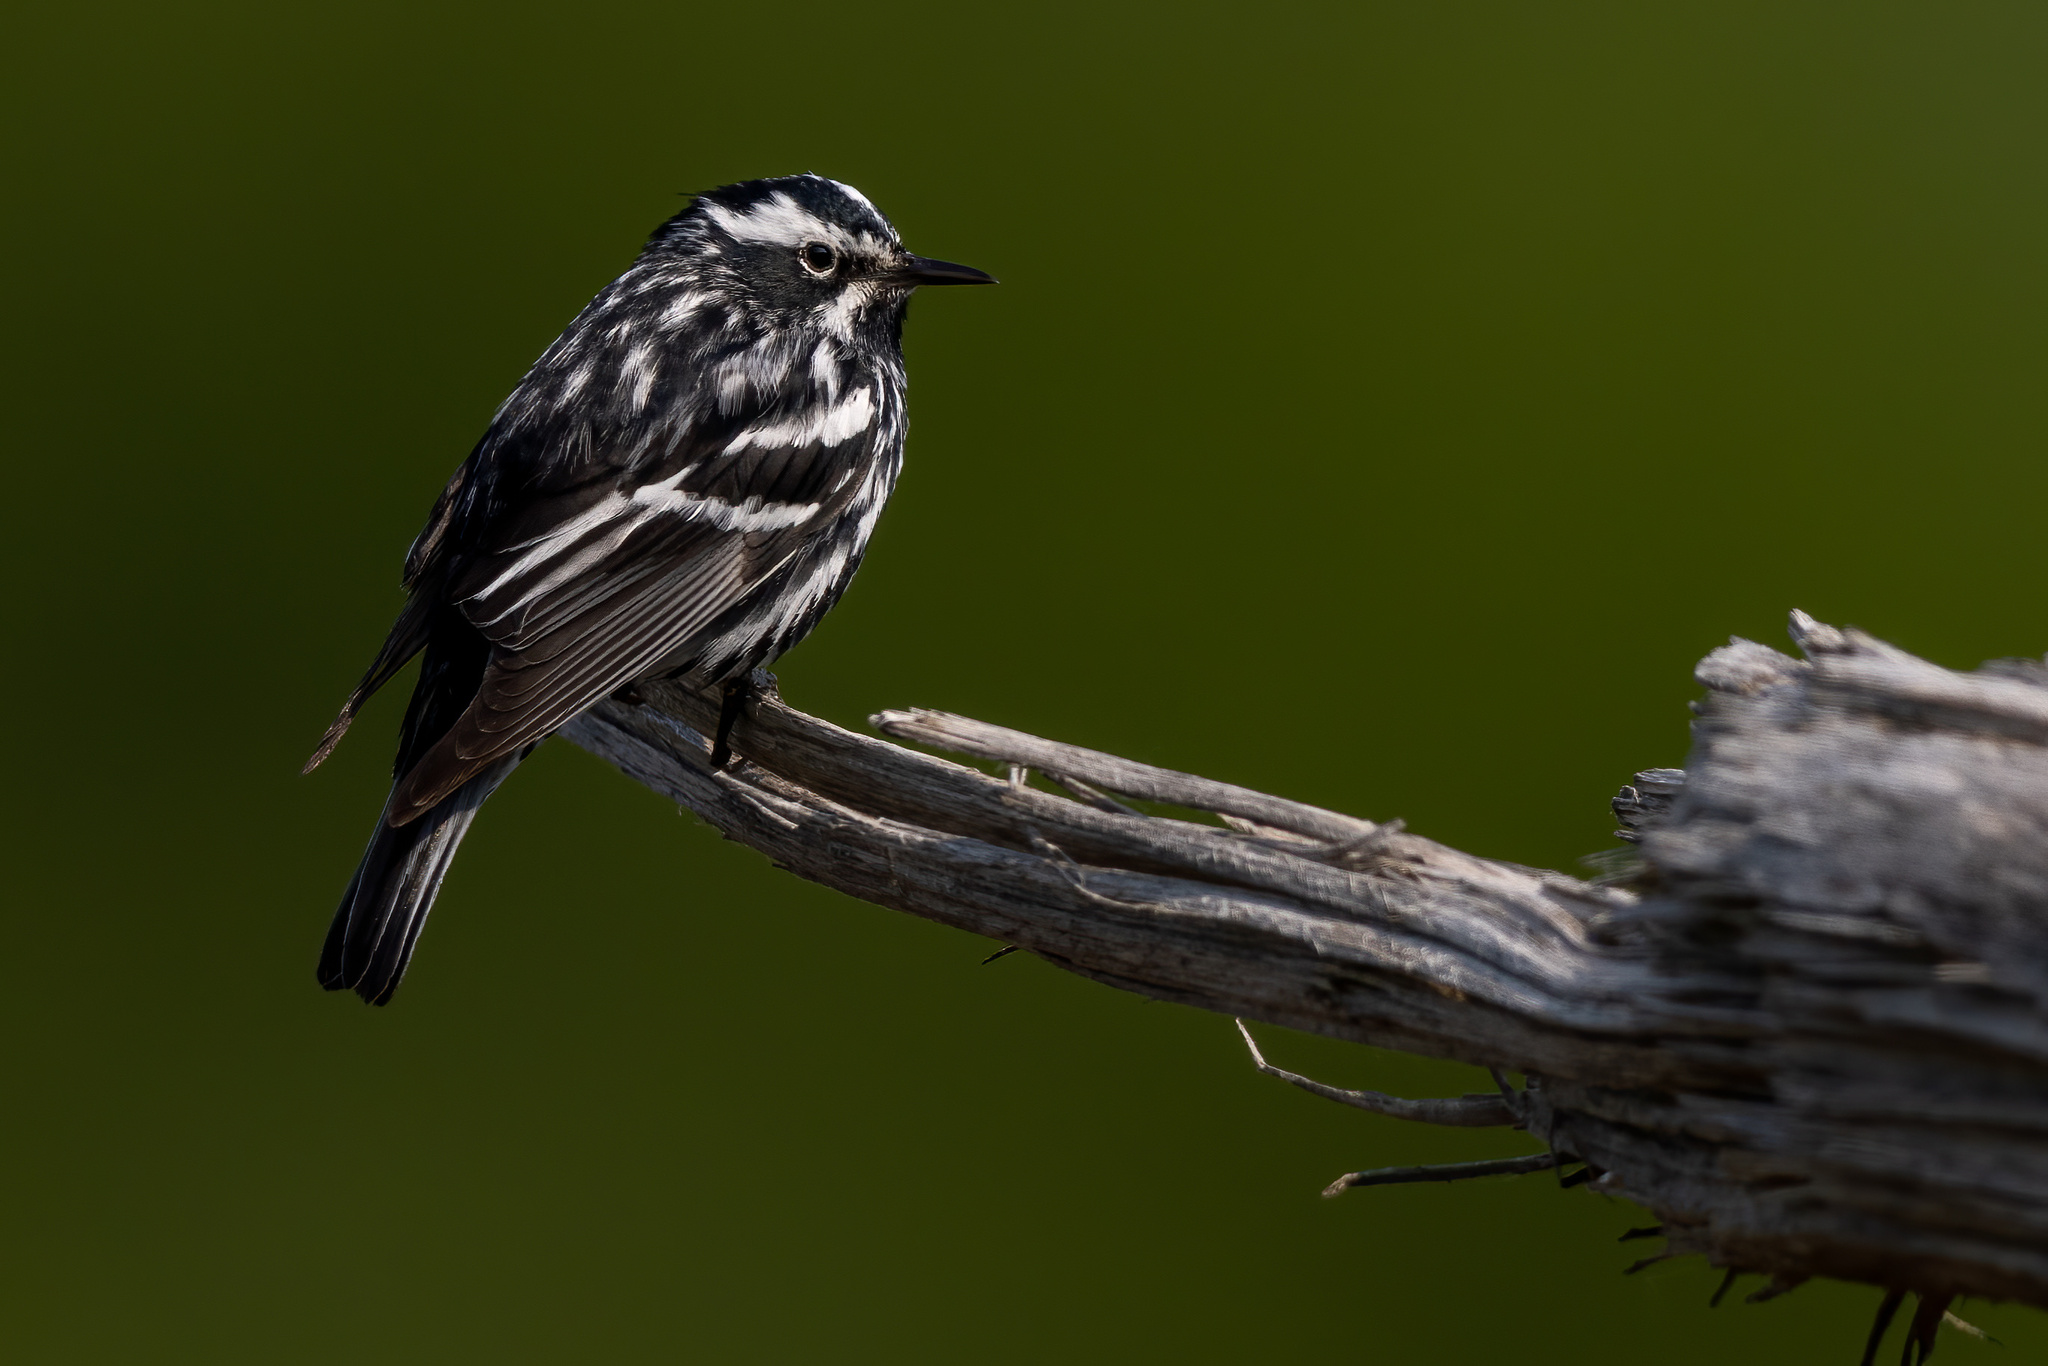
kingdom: Animalia
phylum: Chordata
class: Aves
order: Passeriformes
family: Parulidae
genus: Mniotilta
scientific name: Mniotilta varia
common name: Black-and-white warbler
